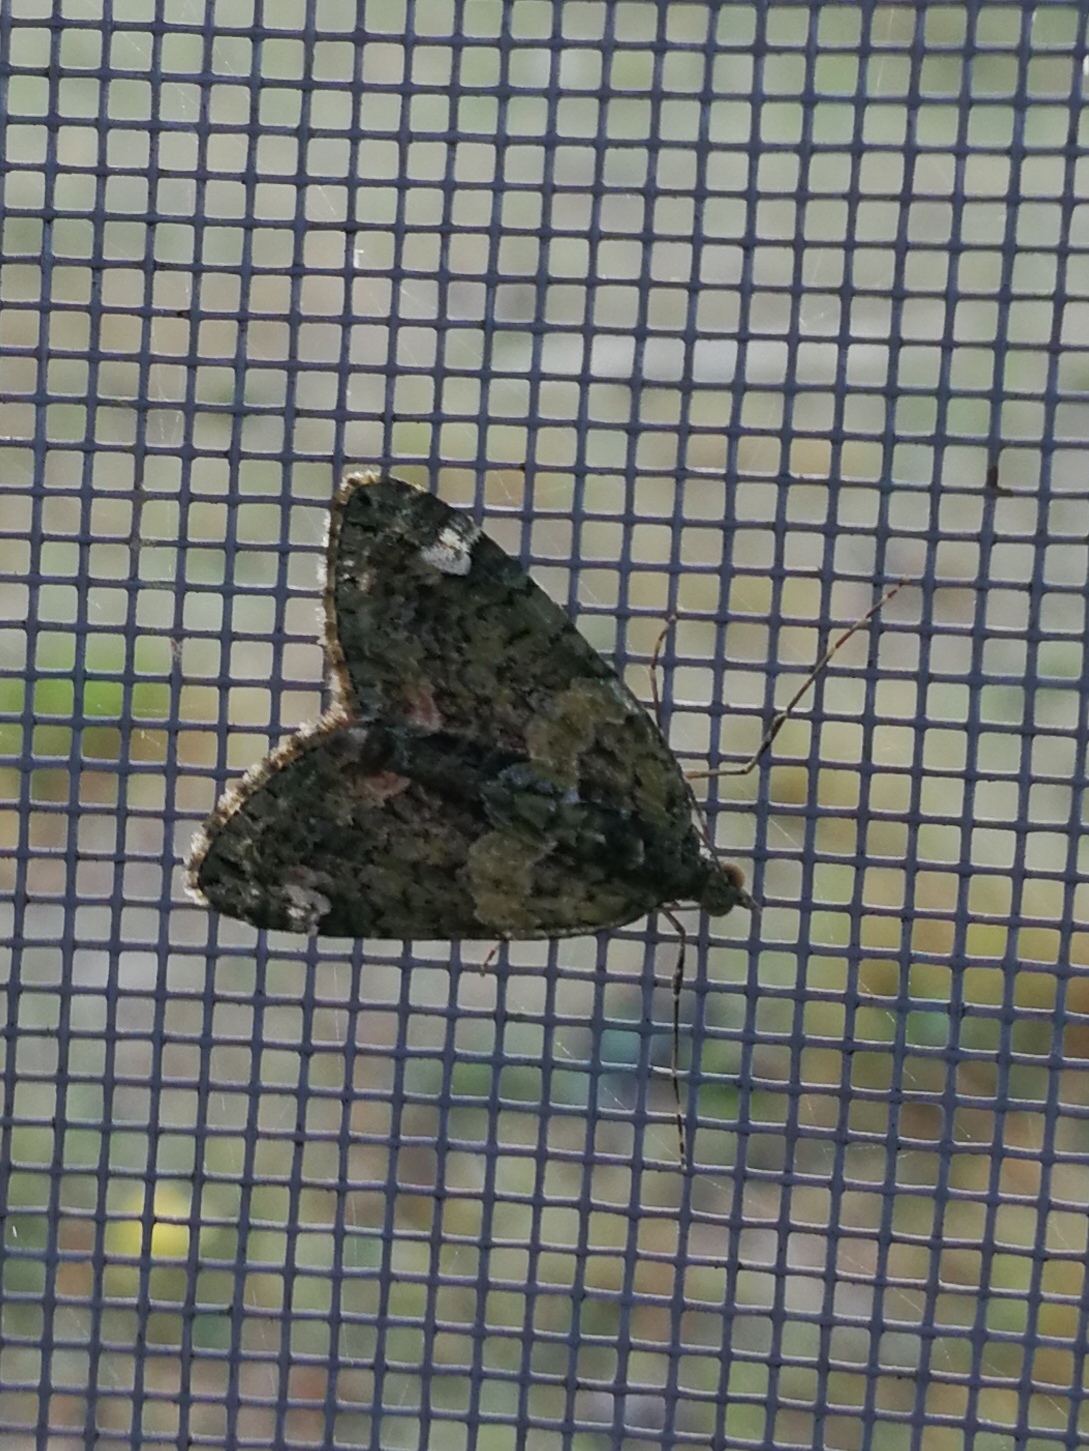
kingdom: Animalia
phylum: Arthropoda
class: Insecta
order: Lepidoptera
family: Geometridae
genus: Chloroclysta
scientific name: Chloroclysta siterata
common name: Red-green carpet
